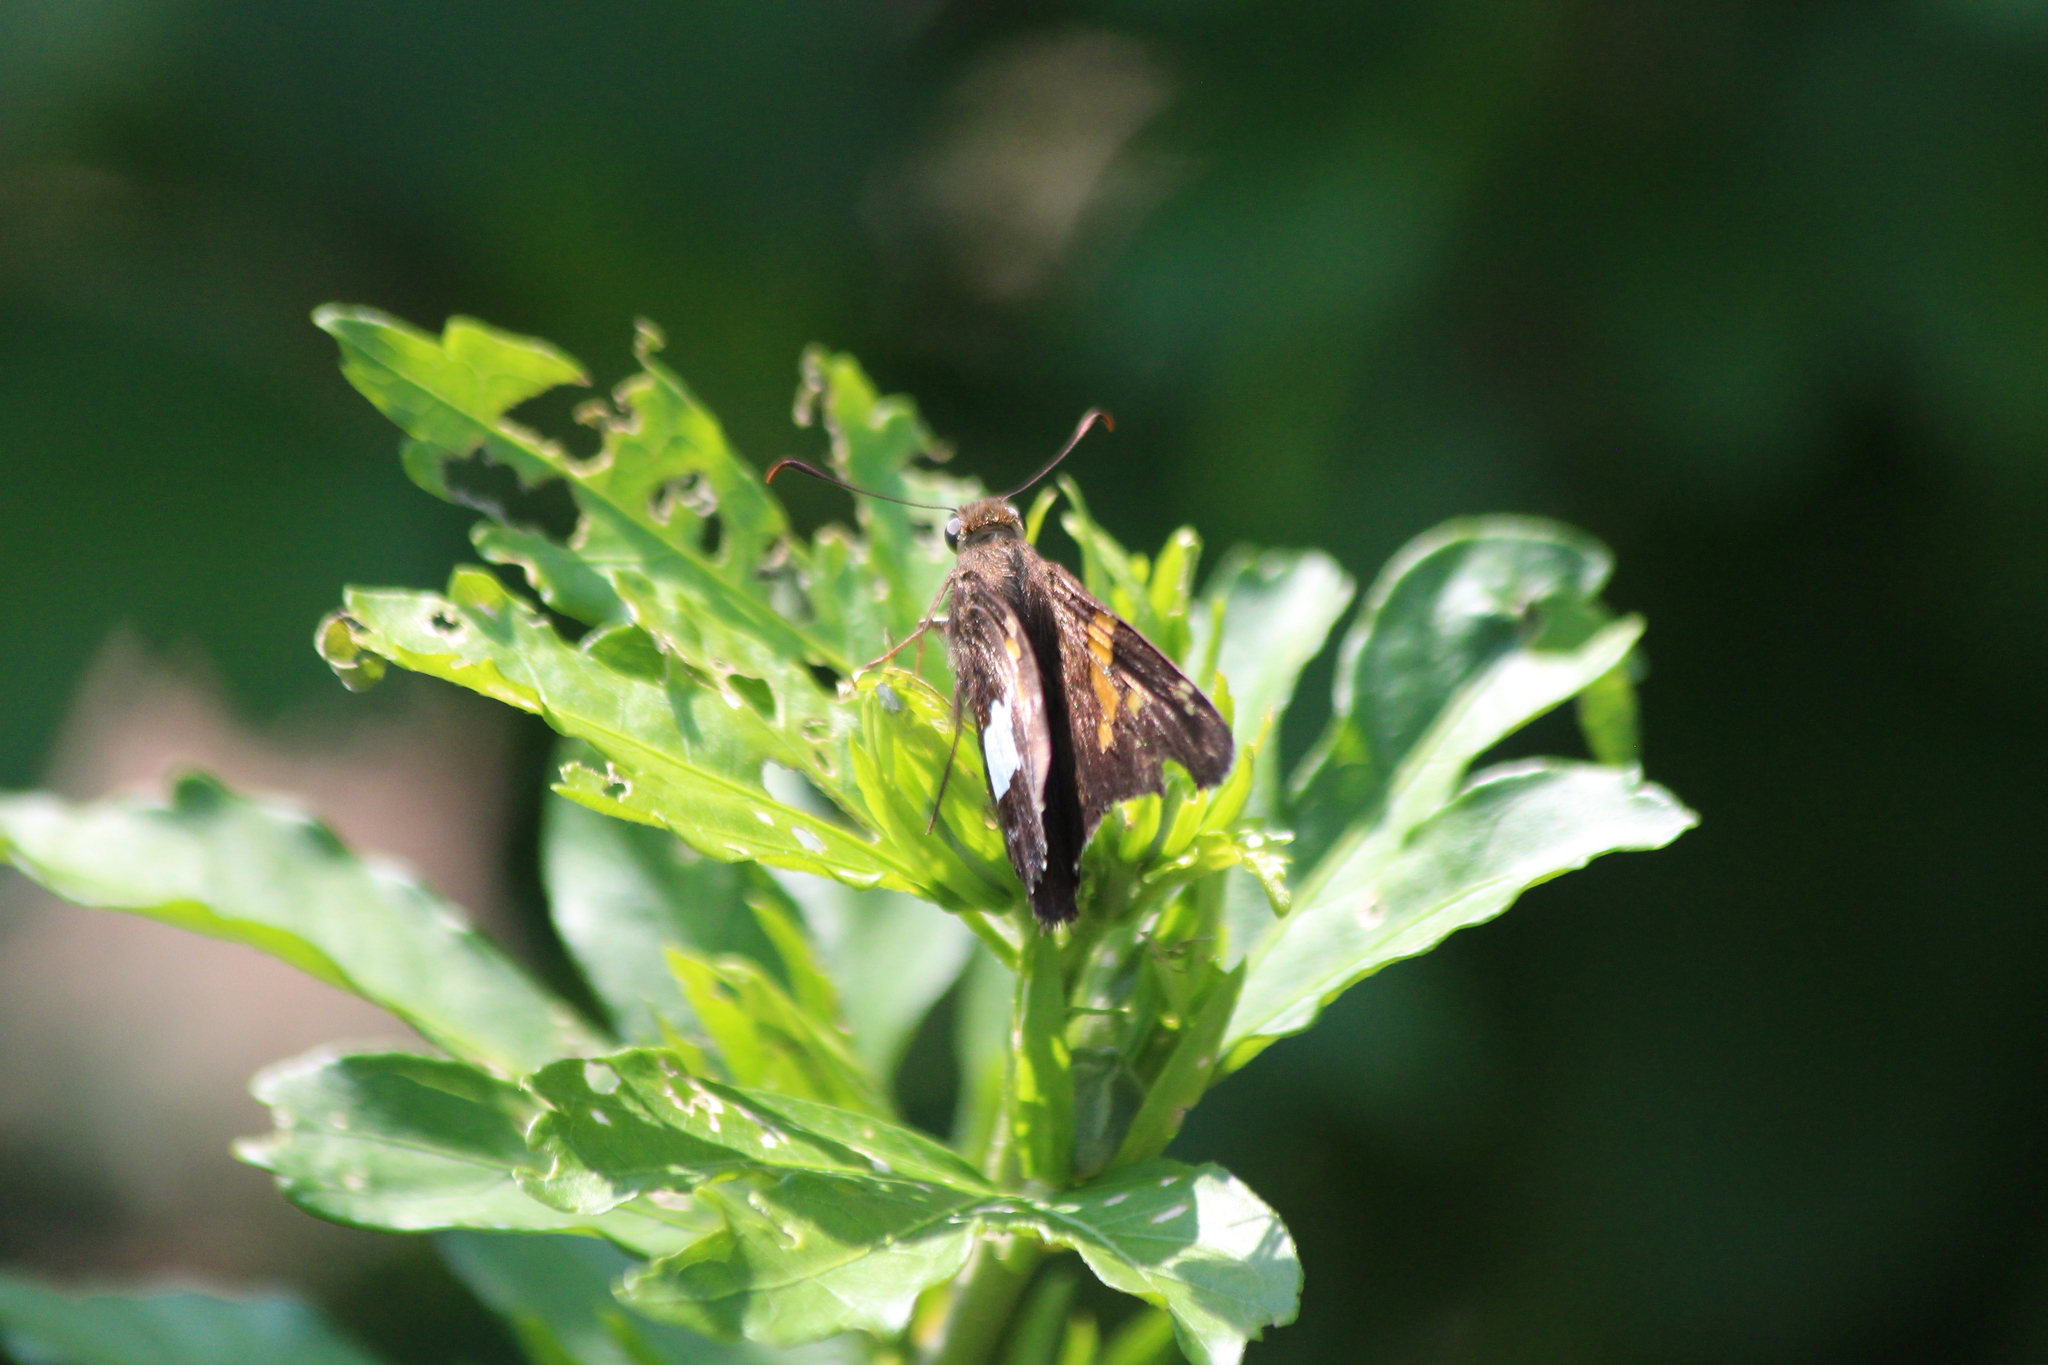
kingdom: Animalia
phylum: Arthropoda
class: Insecta
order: Lepidoptera
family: Hesperiidae
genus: Epargyreus
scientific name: Epargyreus clarus
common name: Silver-spotted skipper
